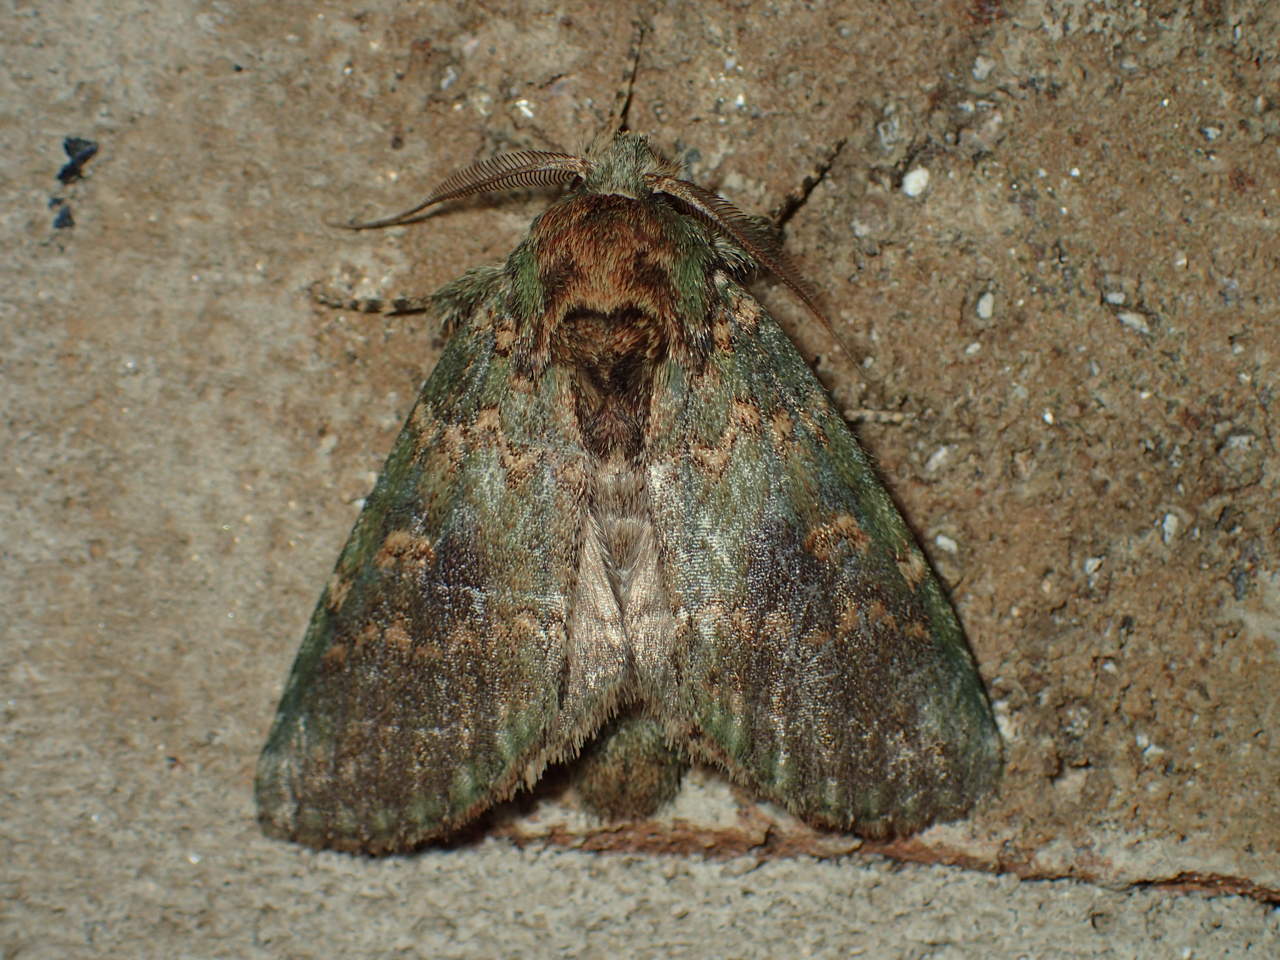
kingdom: Animalia
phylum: Arthropoda
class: Insecta
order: Lepidoptera
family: Notodontidae
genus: Disphragis
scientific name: Disphragis Cecrita biundata
